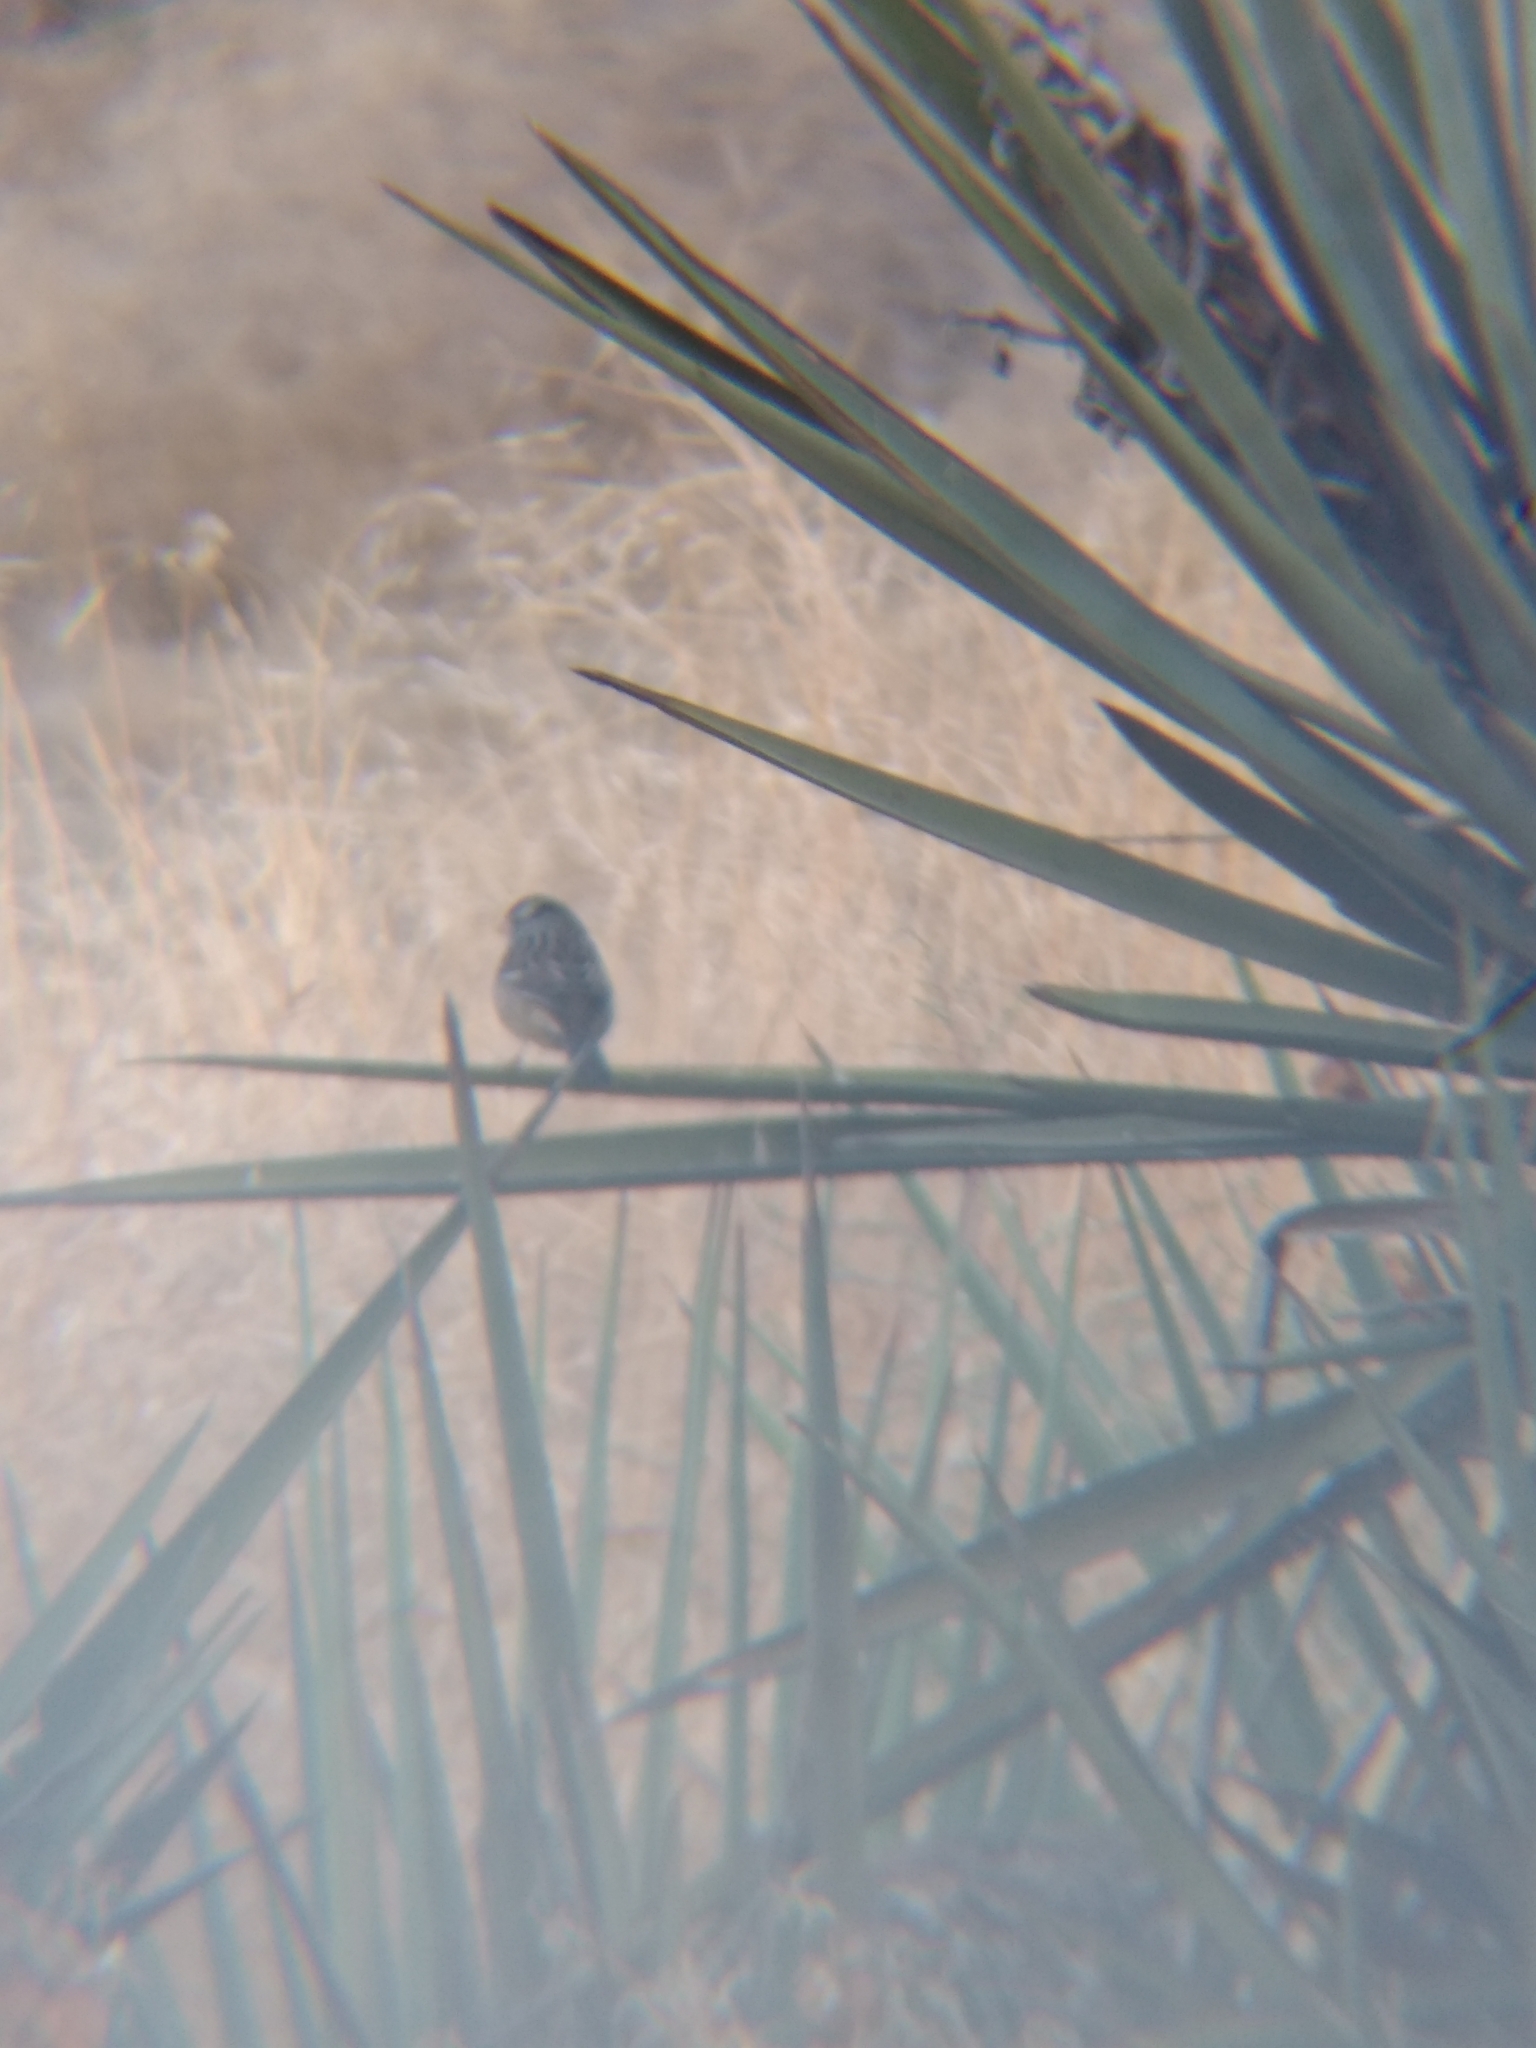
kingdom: Animalia
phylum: Chordata
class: Aves
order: Passeriformes
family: Passerellidae
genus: Zonotrichia
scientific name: Zonotrichia leucophrys
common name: White-crowned sparrow
